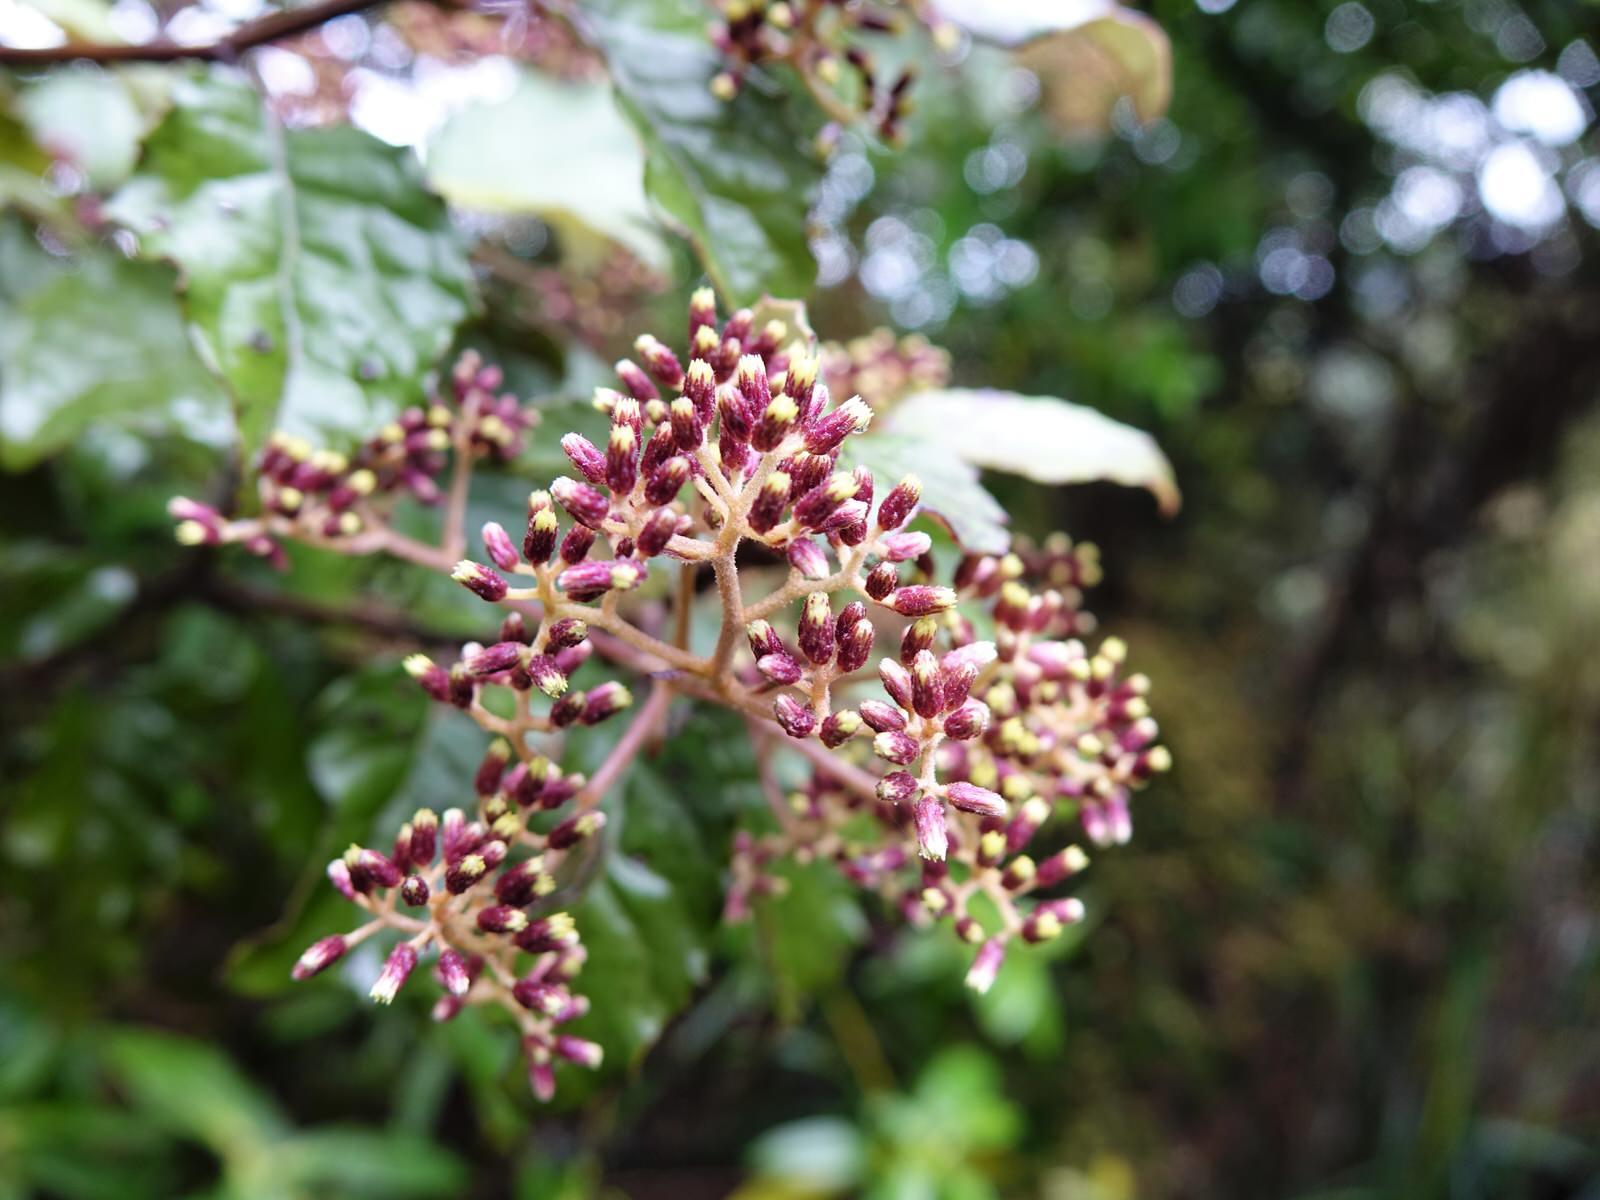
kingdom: Plantae
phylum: Tracheophyta
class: Magnoliopsida
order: Asterales
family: Asteraceae
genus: Olearia
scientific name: Olearia rani
